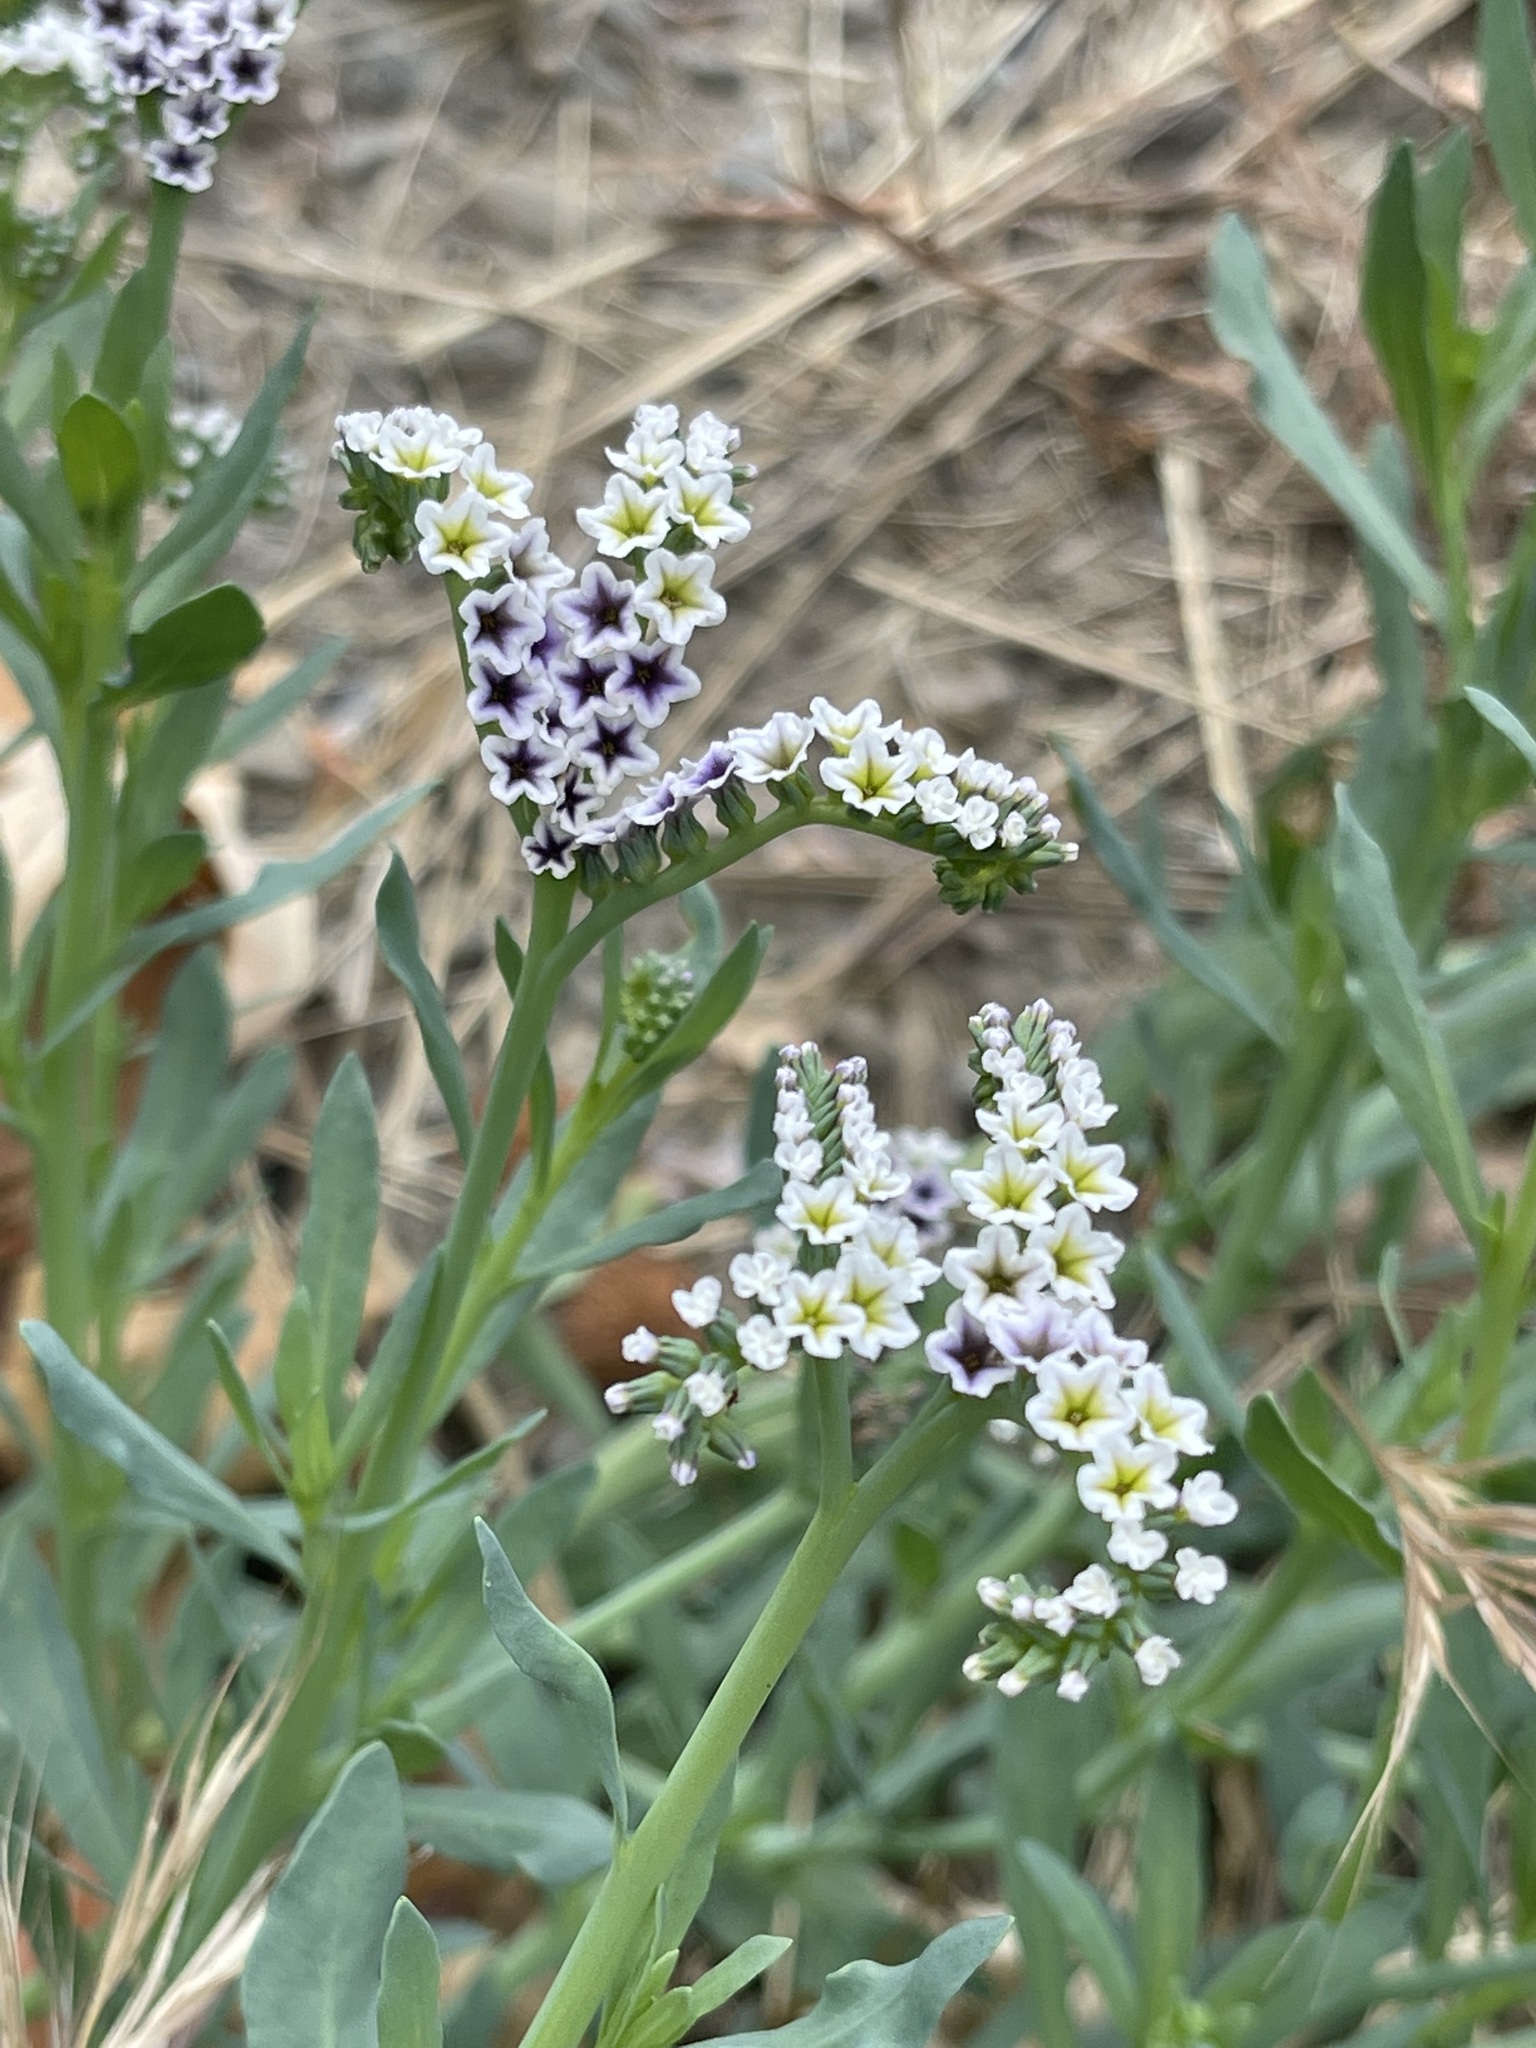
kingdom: Plantae
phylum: Tracheophyta
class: Magnoliopsida
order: Boraginales
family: Heliotropiaceae
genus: Heliotropium
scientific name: Heliotropium curassavicum
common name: Seaside heliotrope
